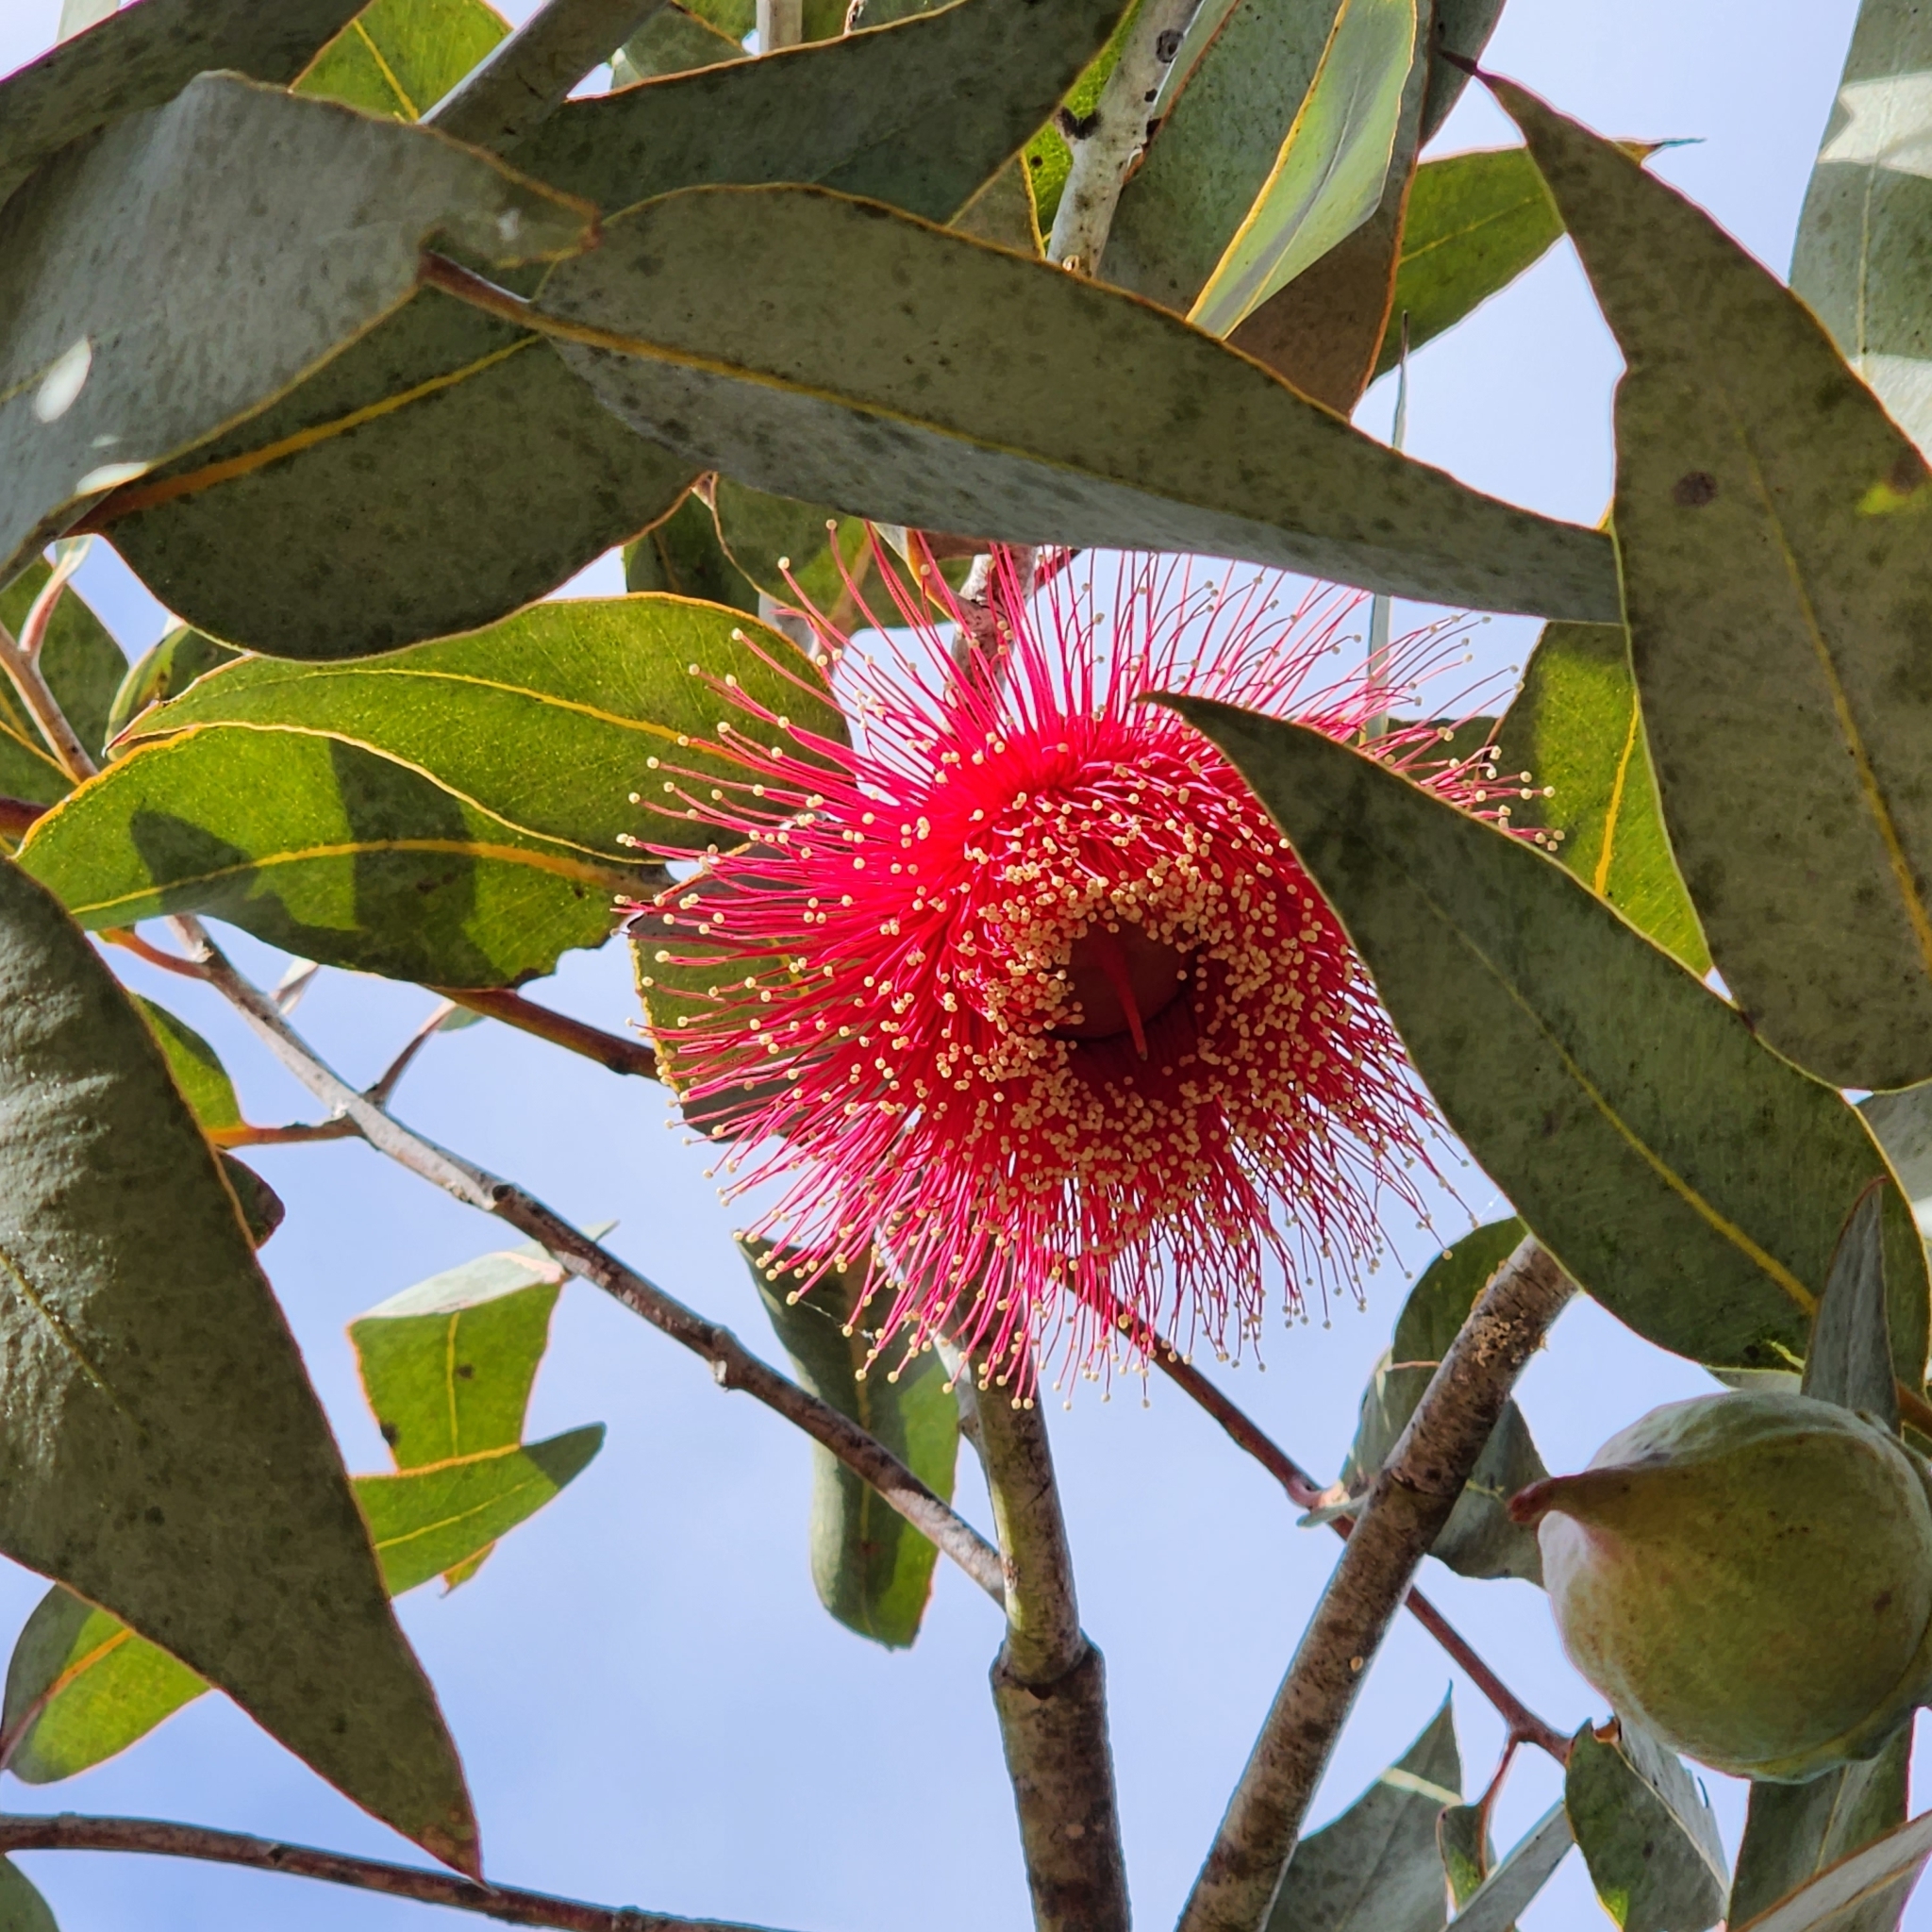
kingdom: Plantae
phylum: Tracheophyta
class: Magnoliopsida
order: Myrtales
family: Myrtaceae
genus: Eucalyptus
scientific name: Eucalyptus
